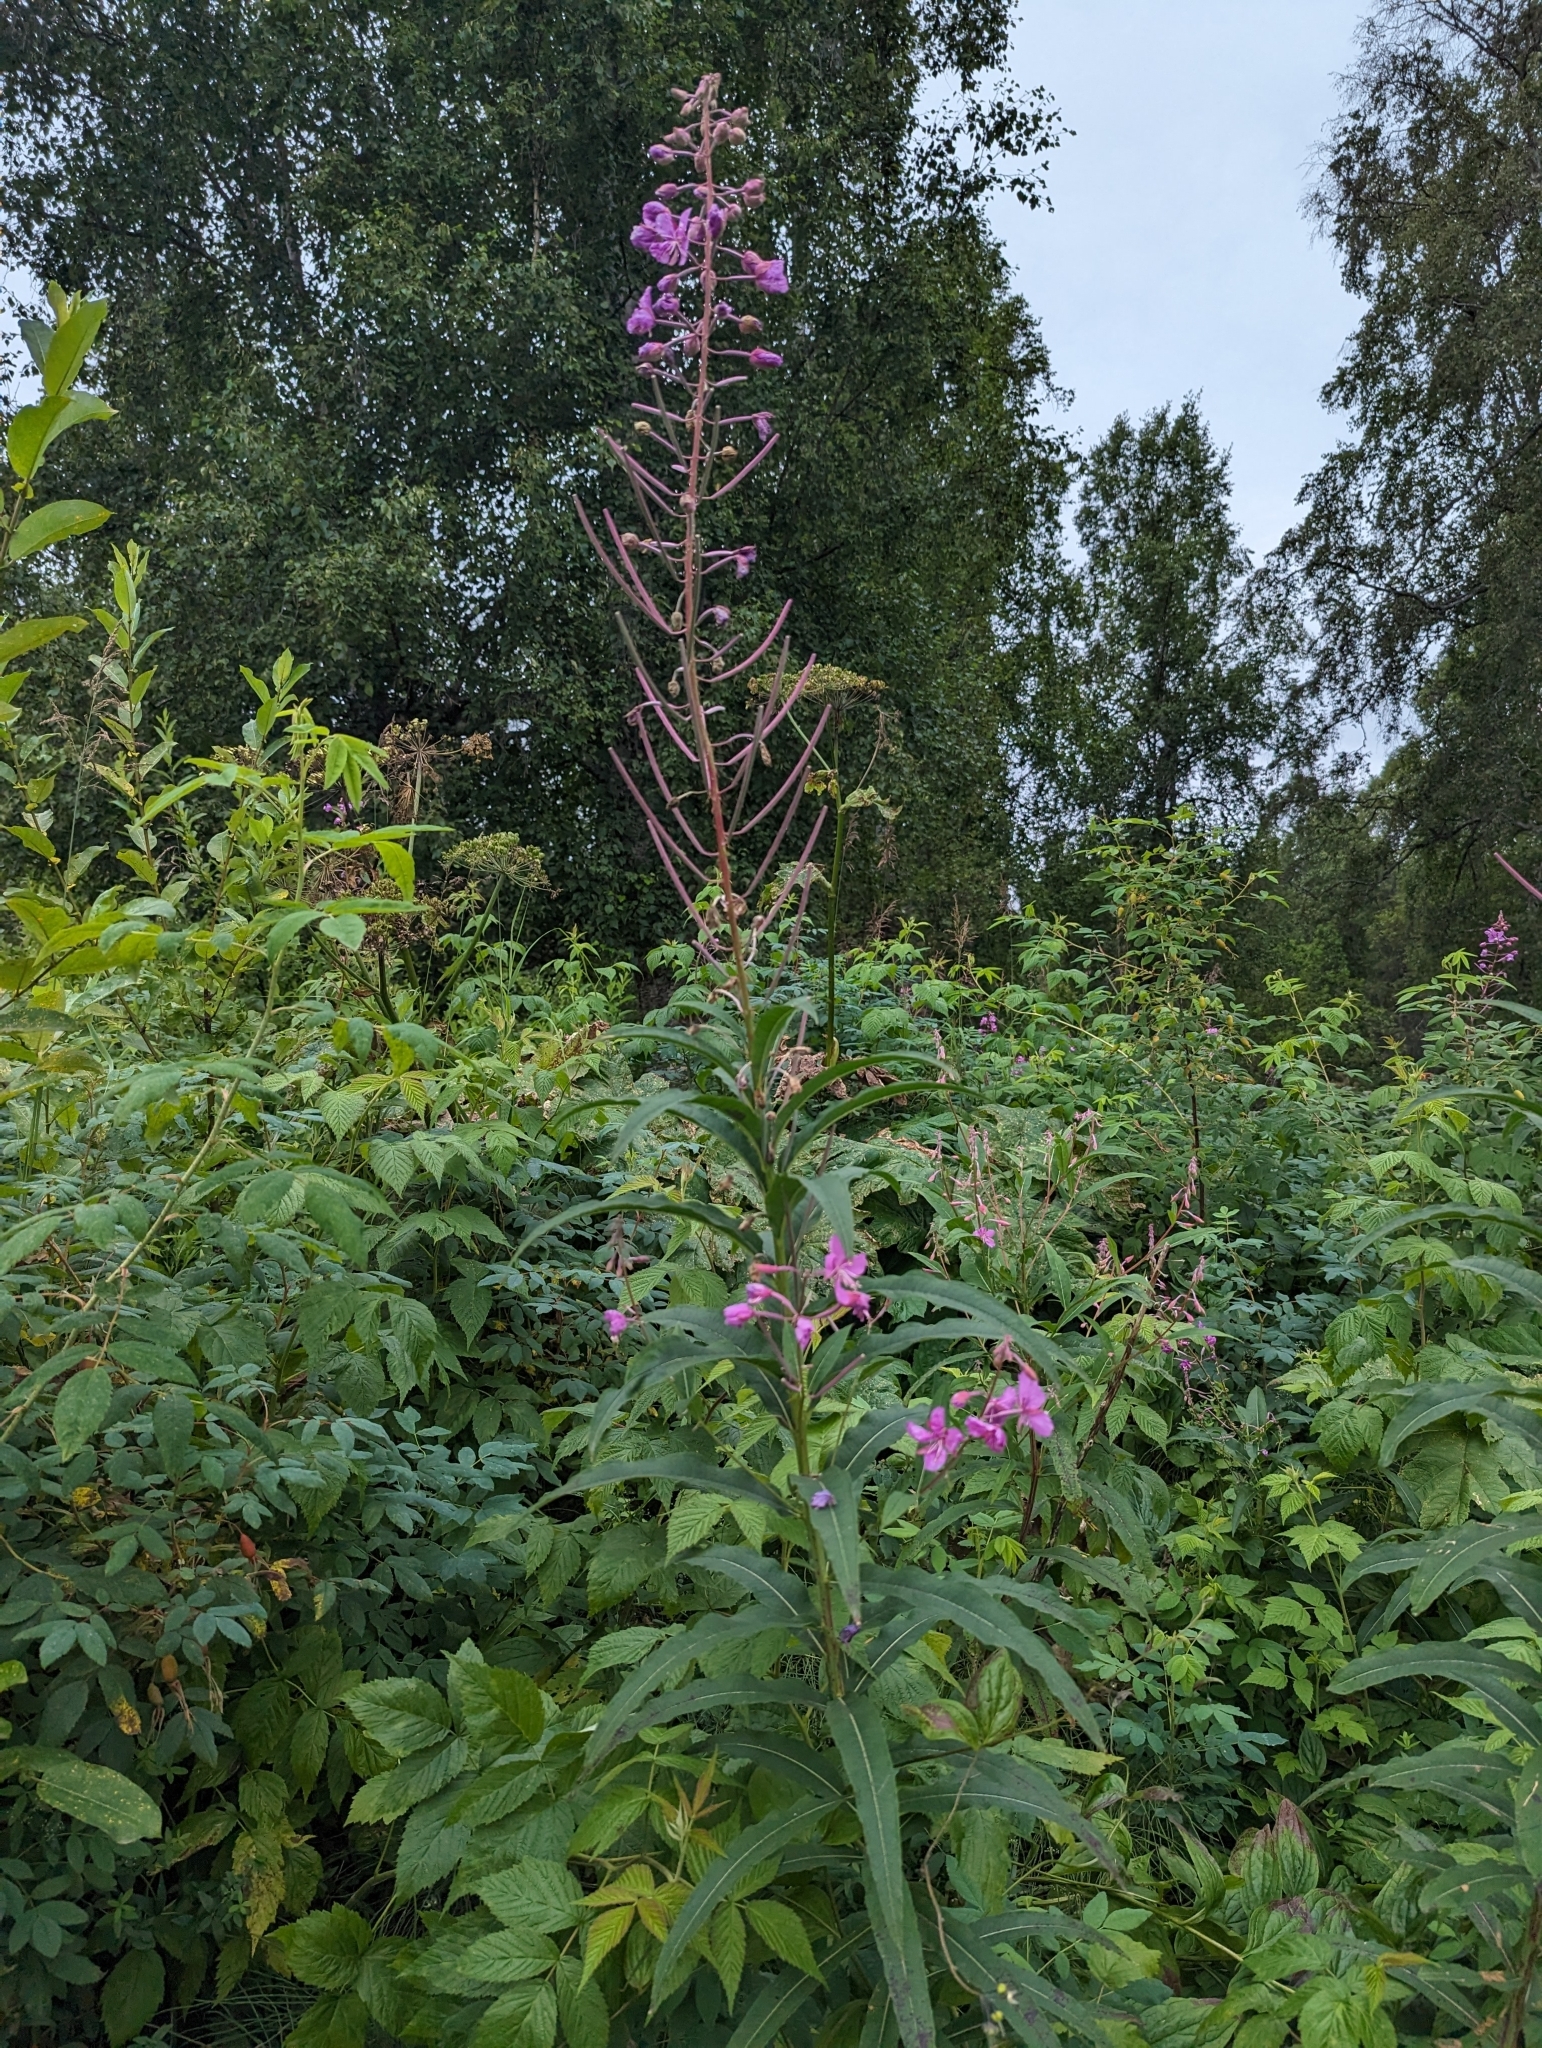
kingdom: Plantae
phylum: Tracheophyta
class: Magnoliopsida
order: Myrtales
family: Onagraceae
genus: Chamaenerion
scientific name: Chamaenerion angustifolium
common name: Fireweed
